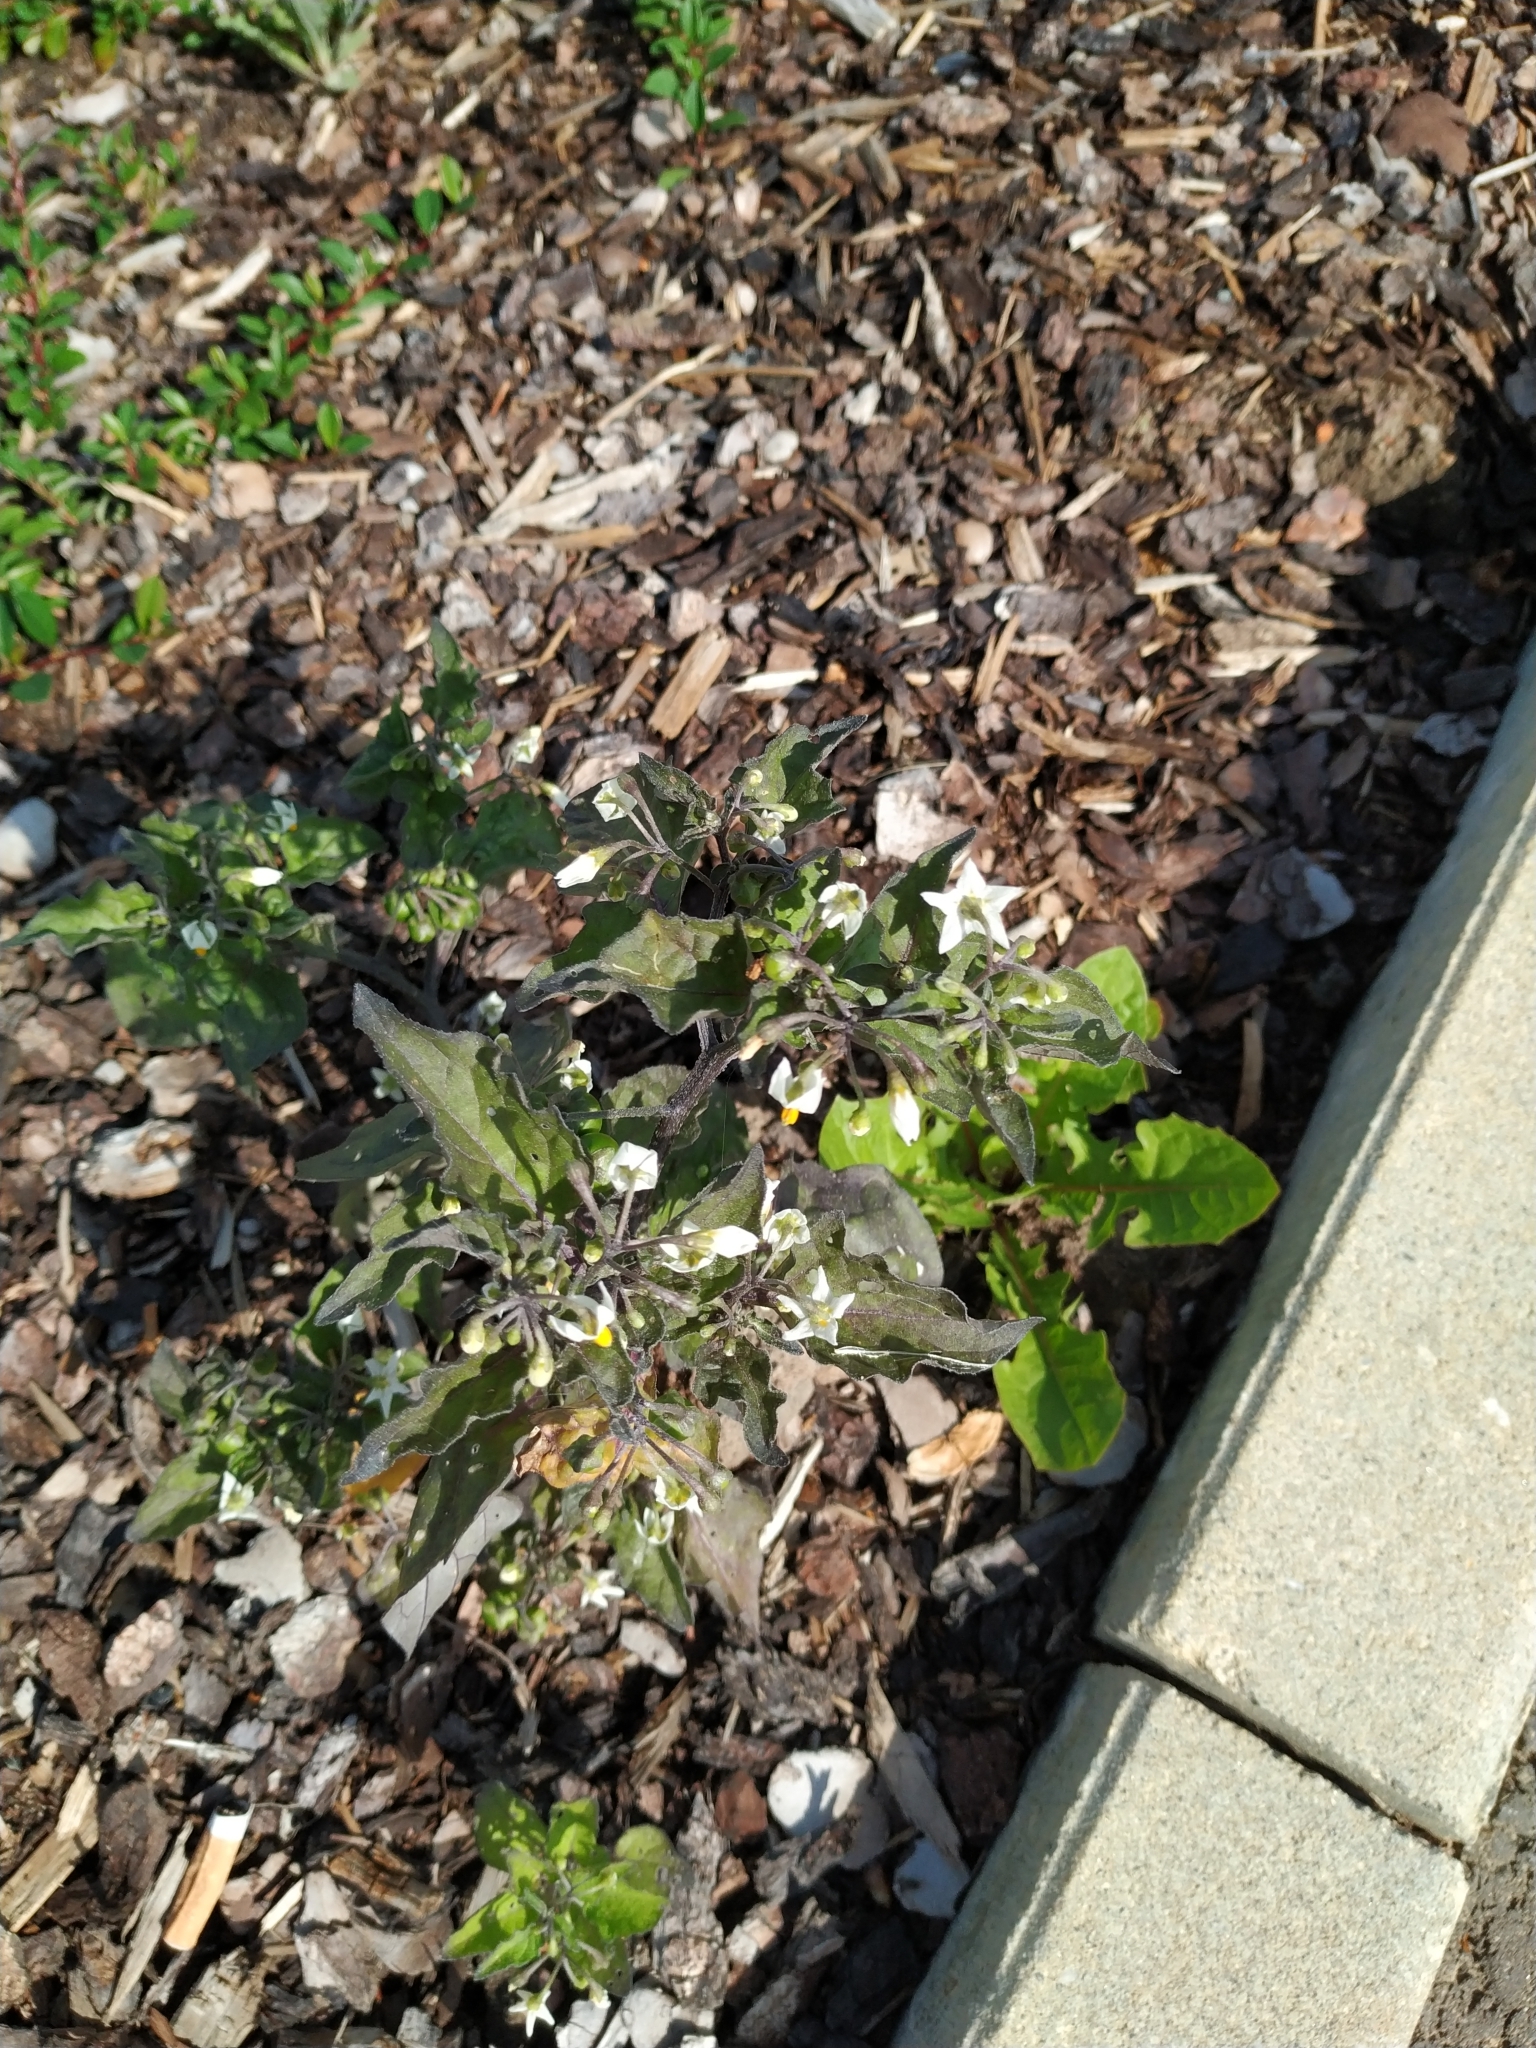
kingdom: Plantae
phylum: Tracheophyta
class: Magnoliopsida
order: Solanales
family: Solanaceae
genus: Solanum
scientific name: Solanum nigrum
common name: Black nightshade
